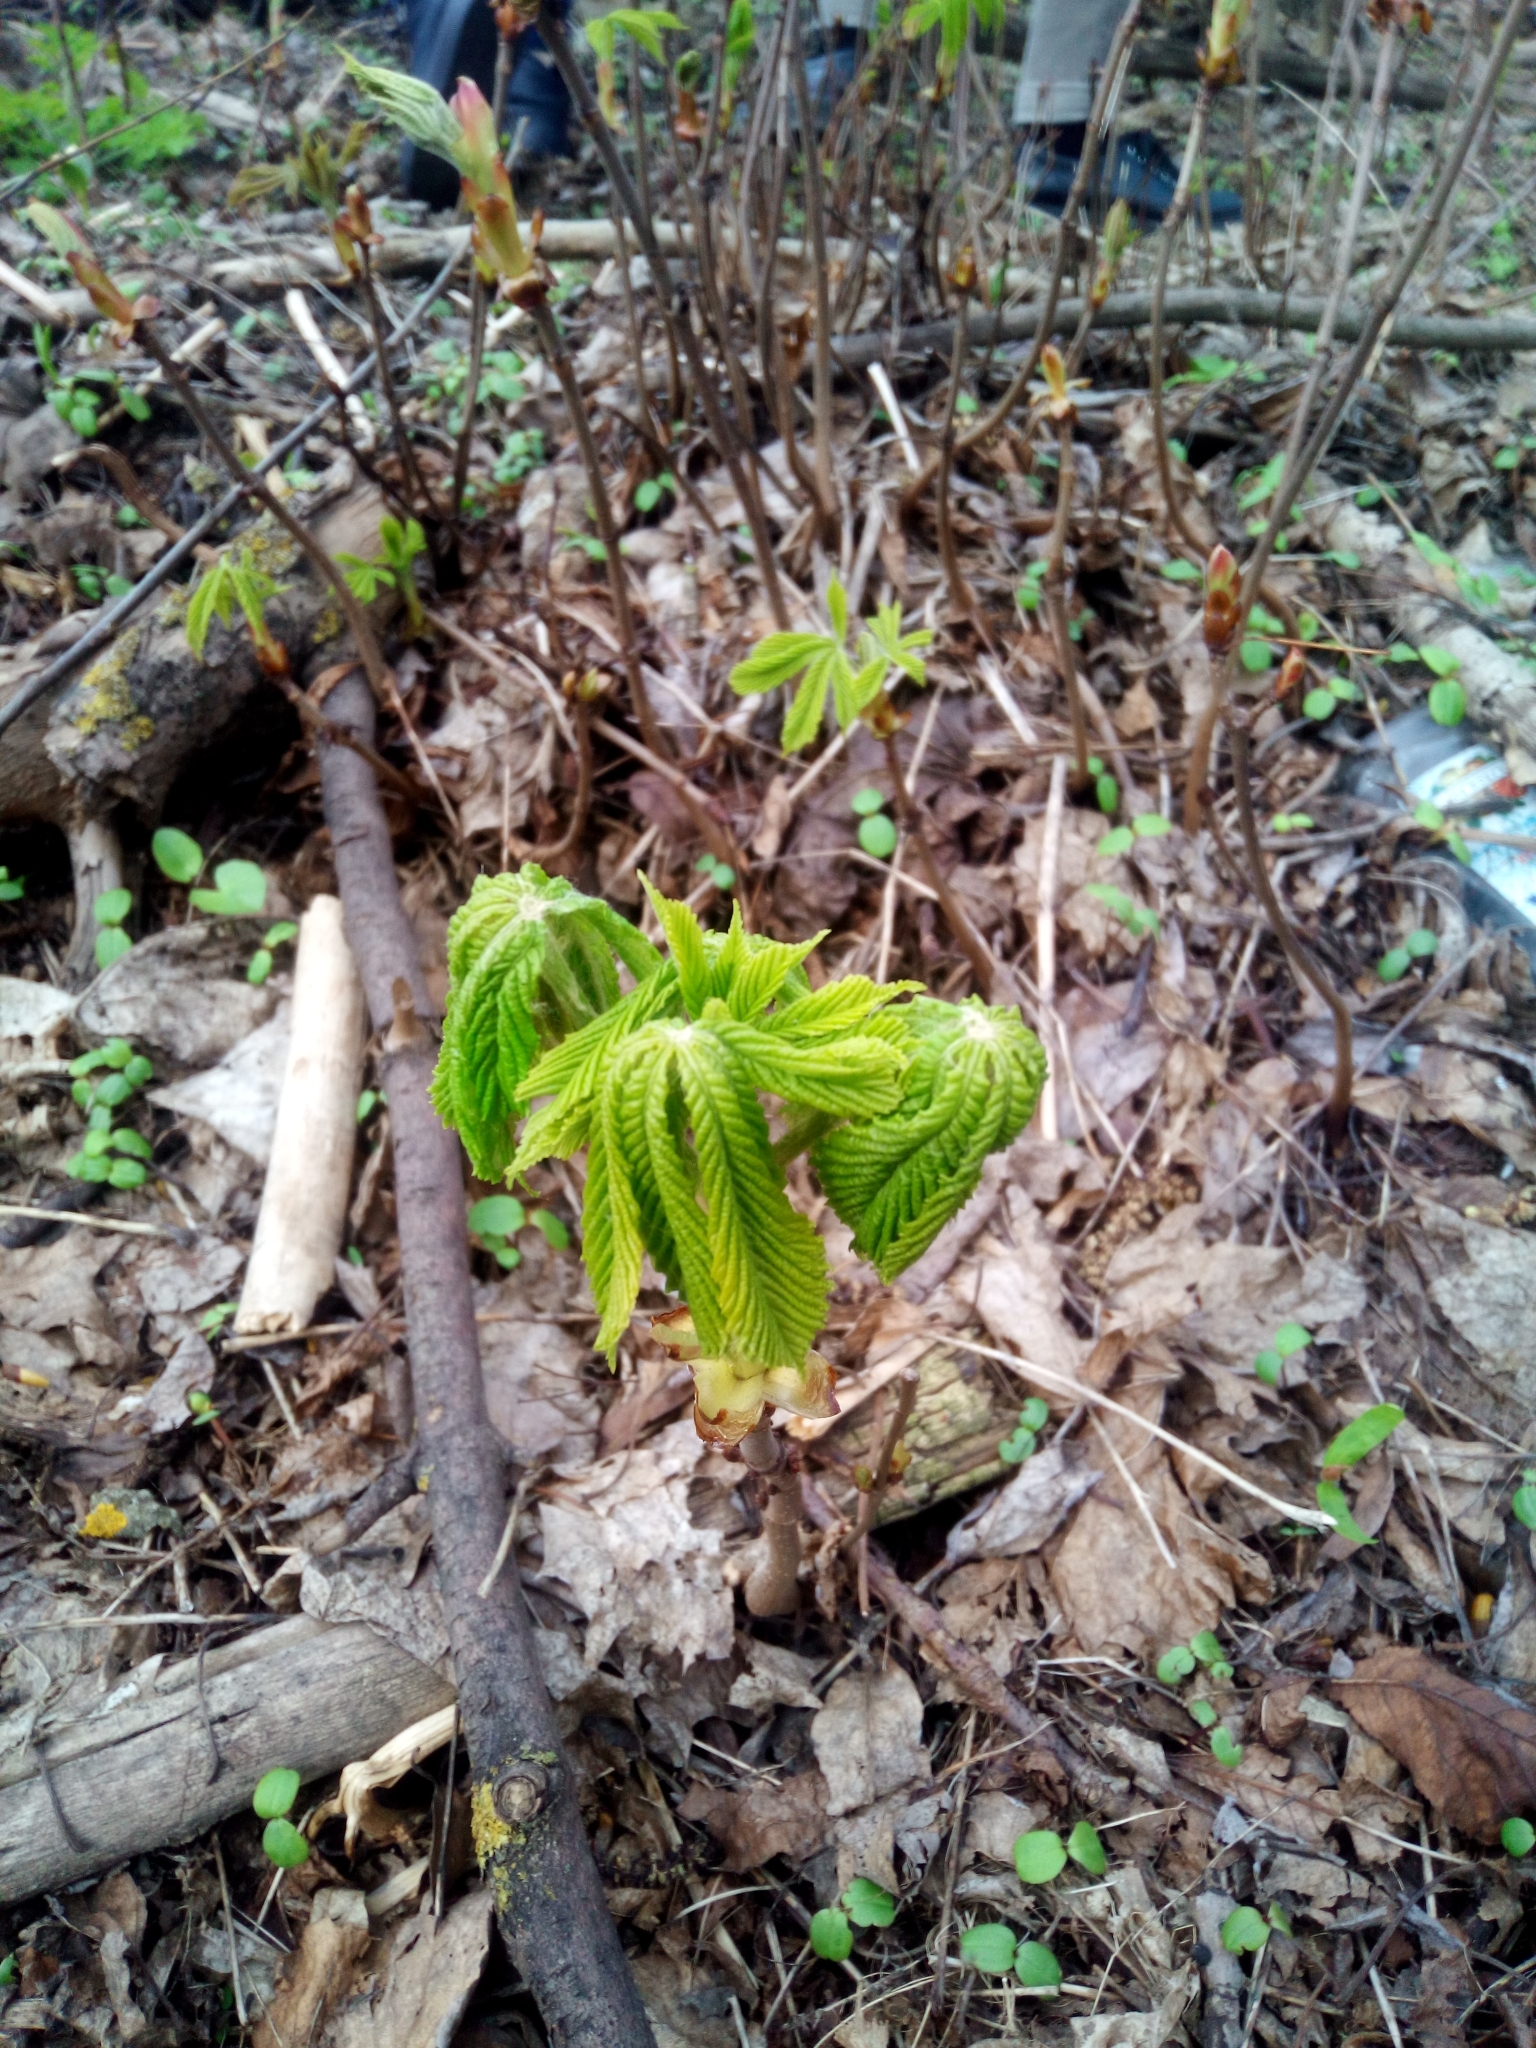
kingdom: Plantae
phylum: Tracheophyta
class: Magnoliopsida
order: Sapindales
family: Sapindaceae
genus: Aesculus
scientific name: Aesculus hippocastanum
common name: Horse-chestnut
